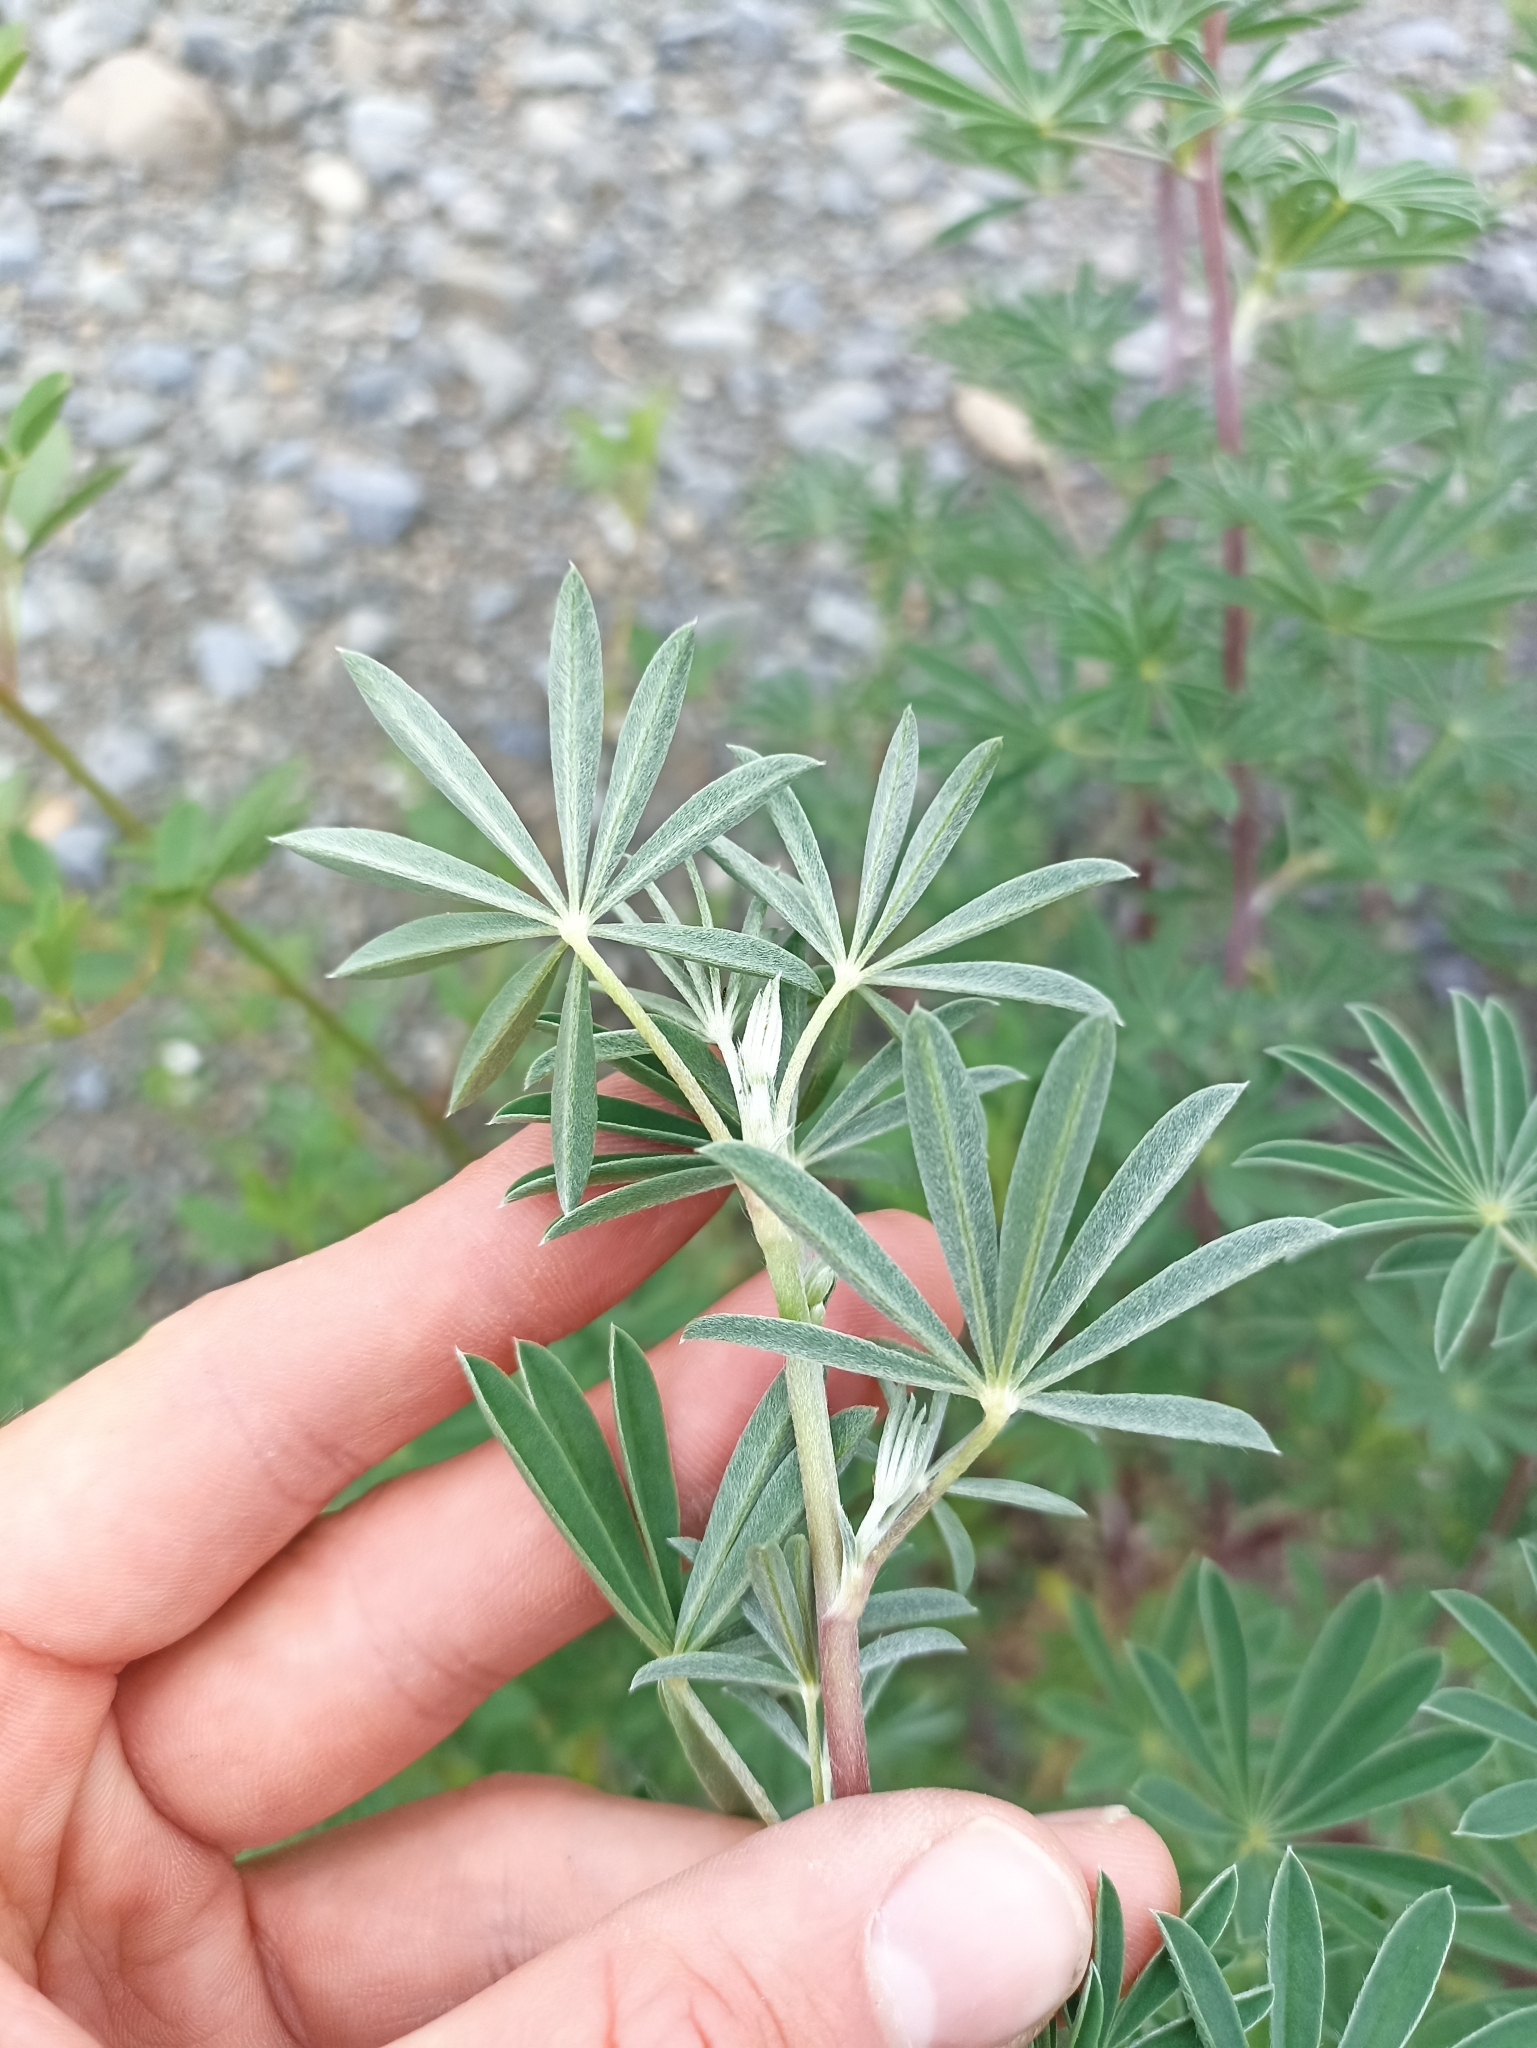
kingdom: Plantae
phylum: Tracheophyta
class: Magnoliopsida
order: Fabales
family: Fabaceae
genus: Lupinus
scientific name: Lupinus arboreus
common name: Yellow bush lupine
